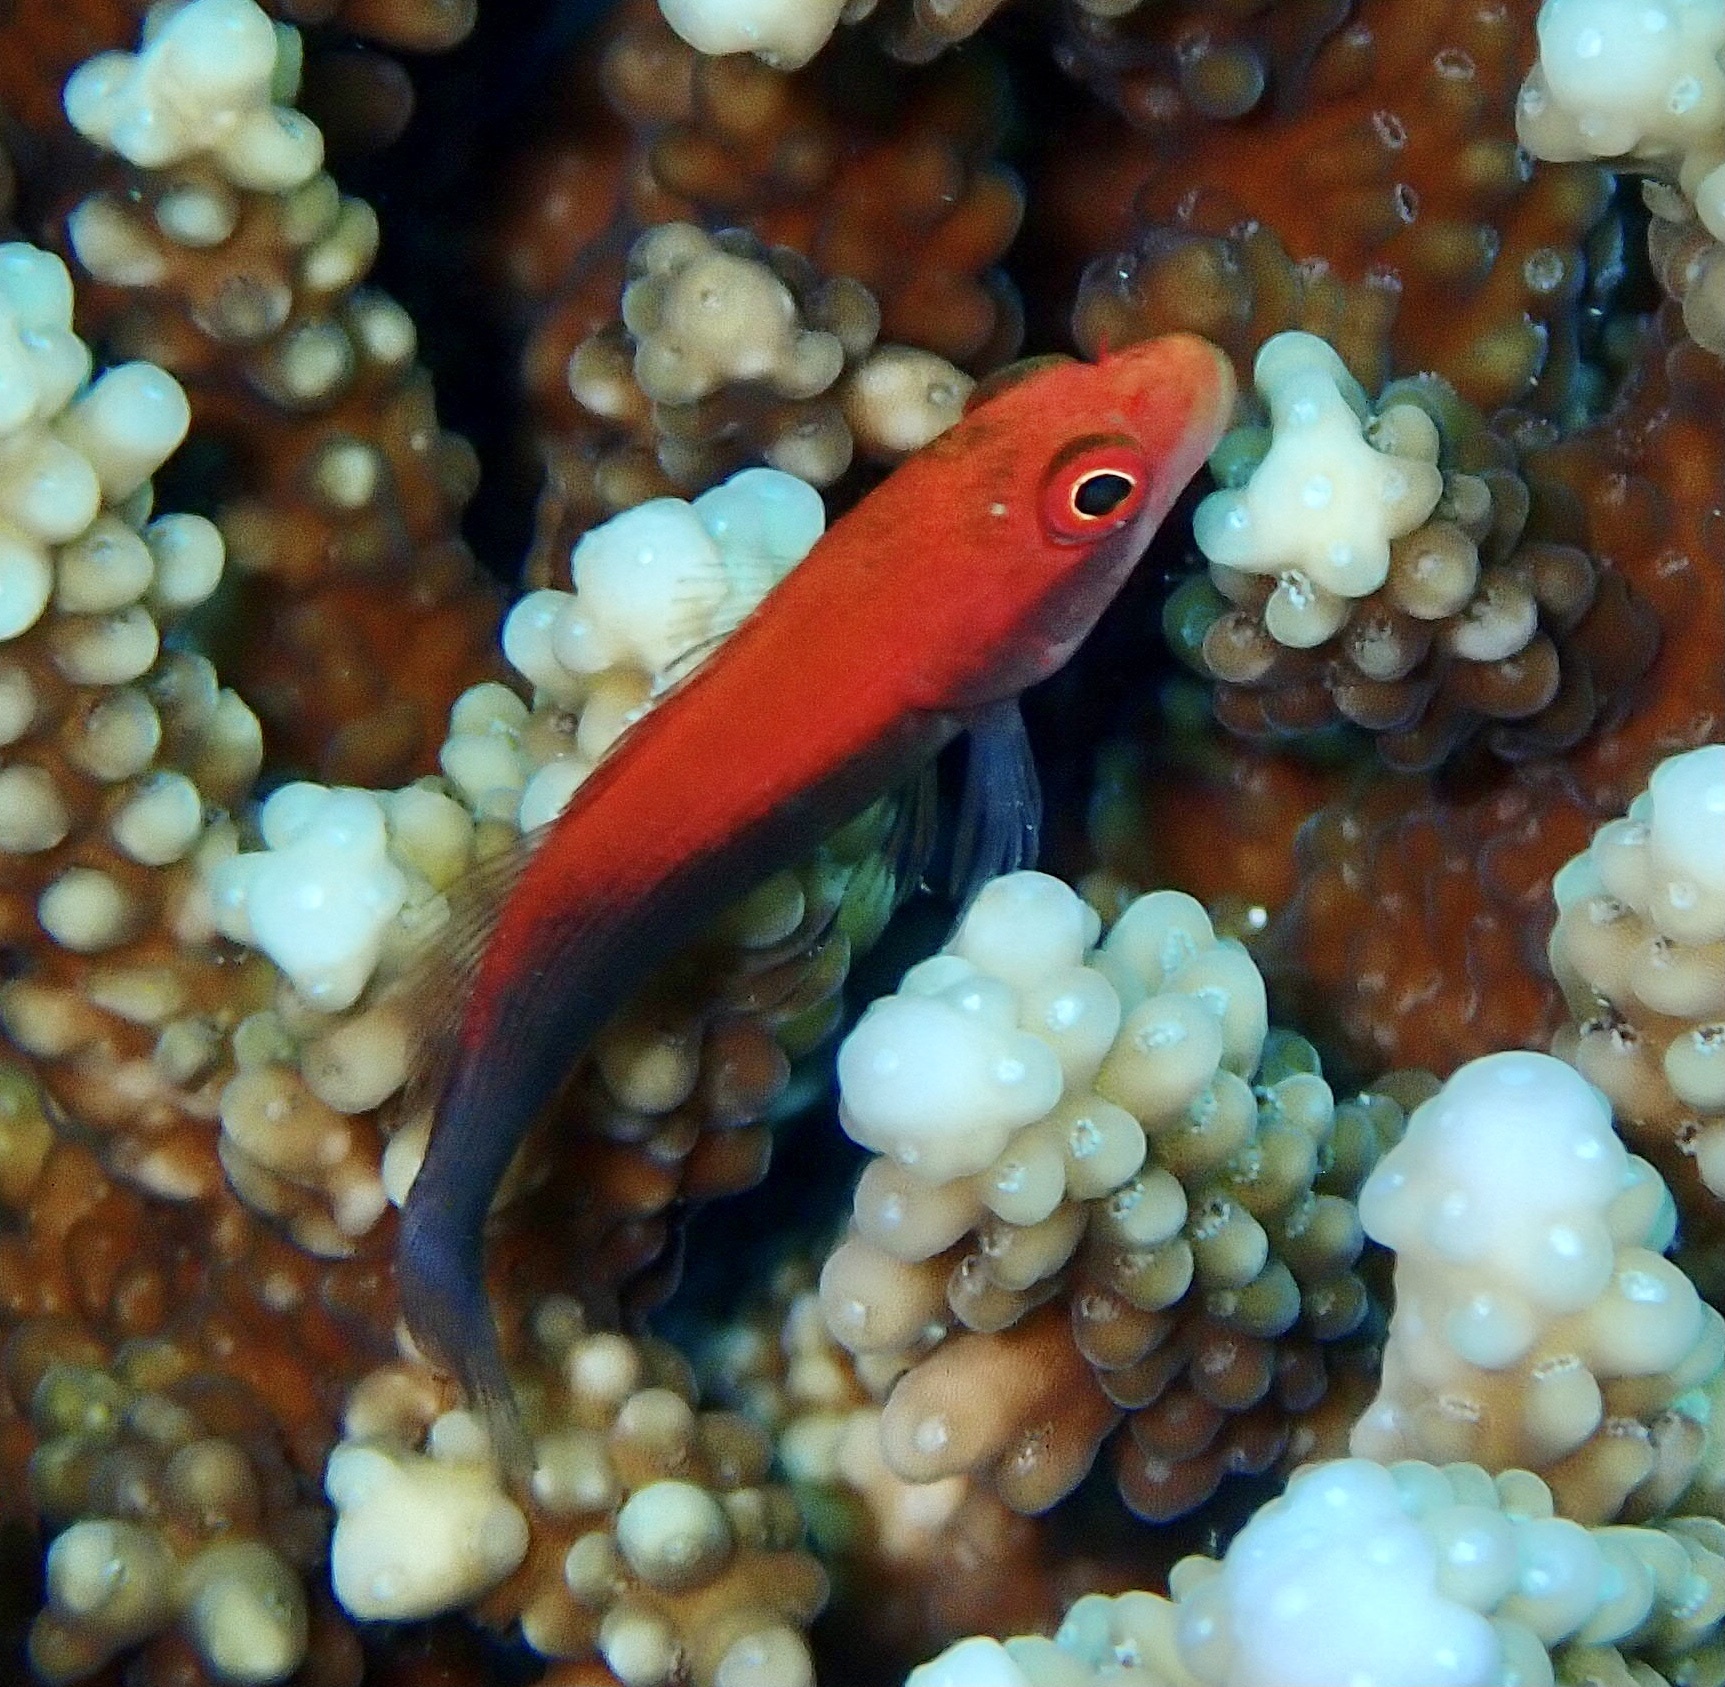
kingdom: Animalia
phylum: Chordata
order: Perciformes
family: Cirrhitidae
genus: Paracirrhites
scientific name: Paracirrhites forsteri
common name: Freckled hawkfish
